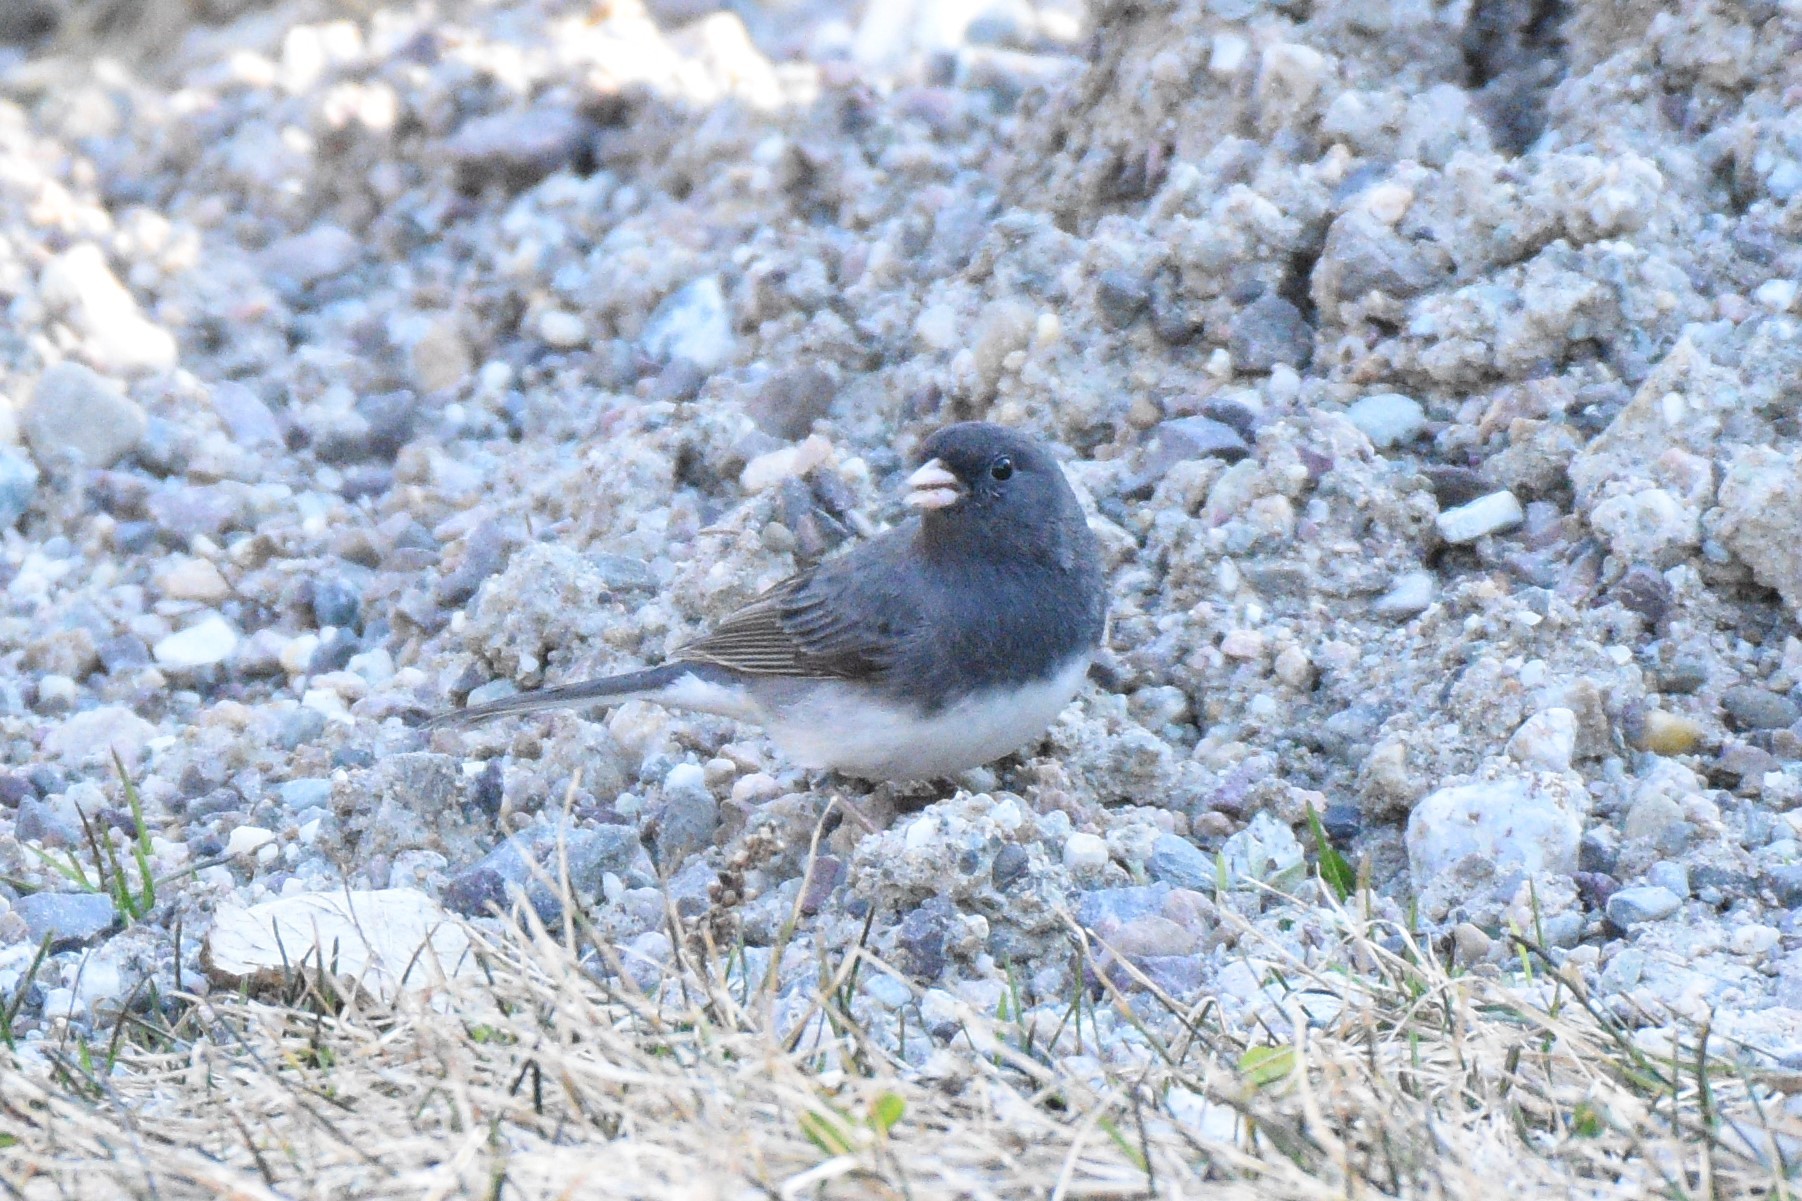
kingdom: Animalia
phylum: Chordata
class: Aves
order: Passeriformes
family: Passerellidae
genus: Junco
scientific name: Junco hyemalis
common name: Dark-eyed junco
